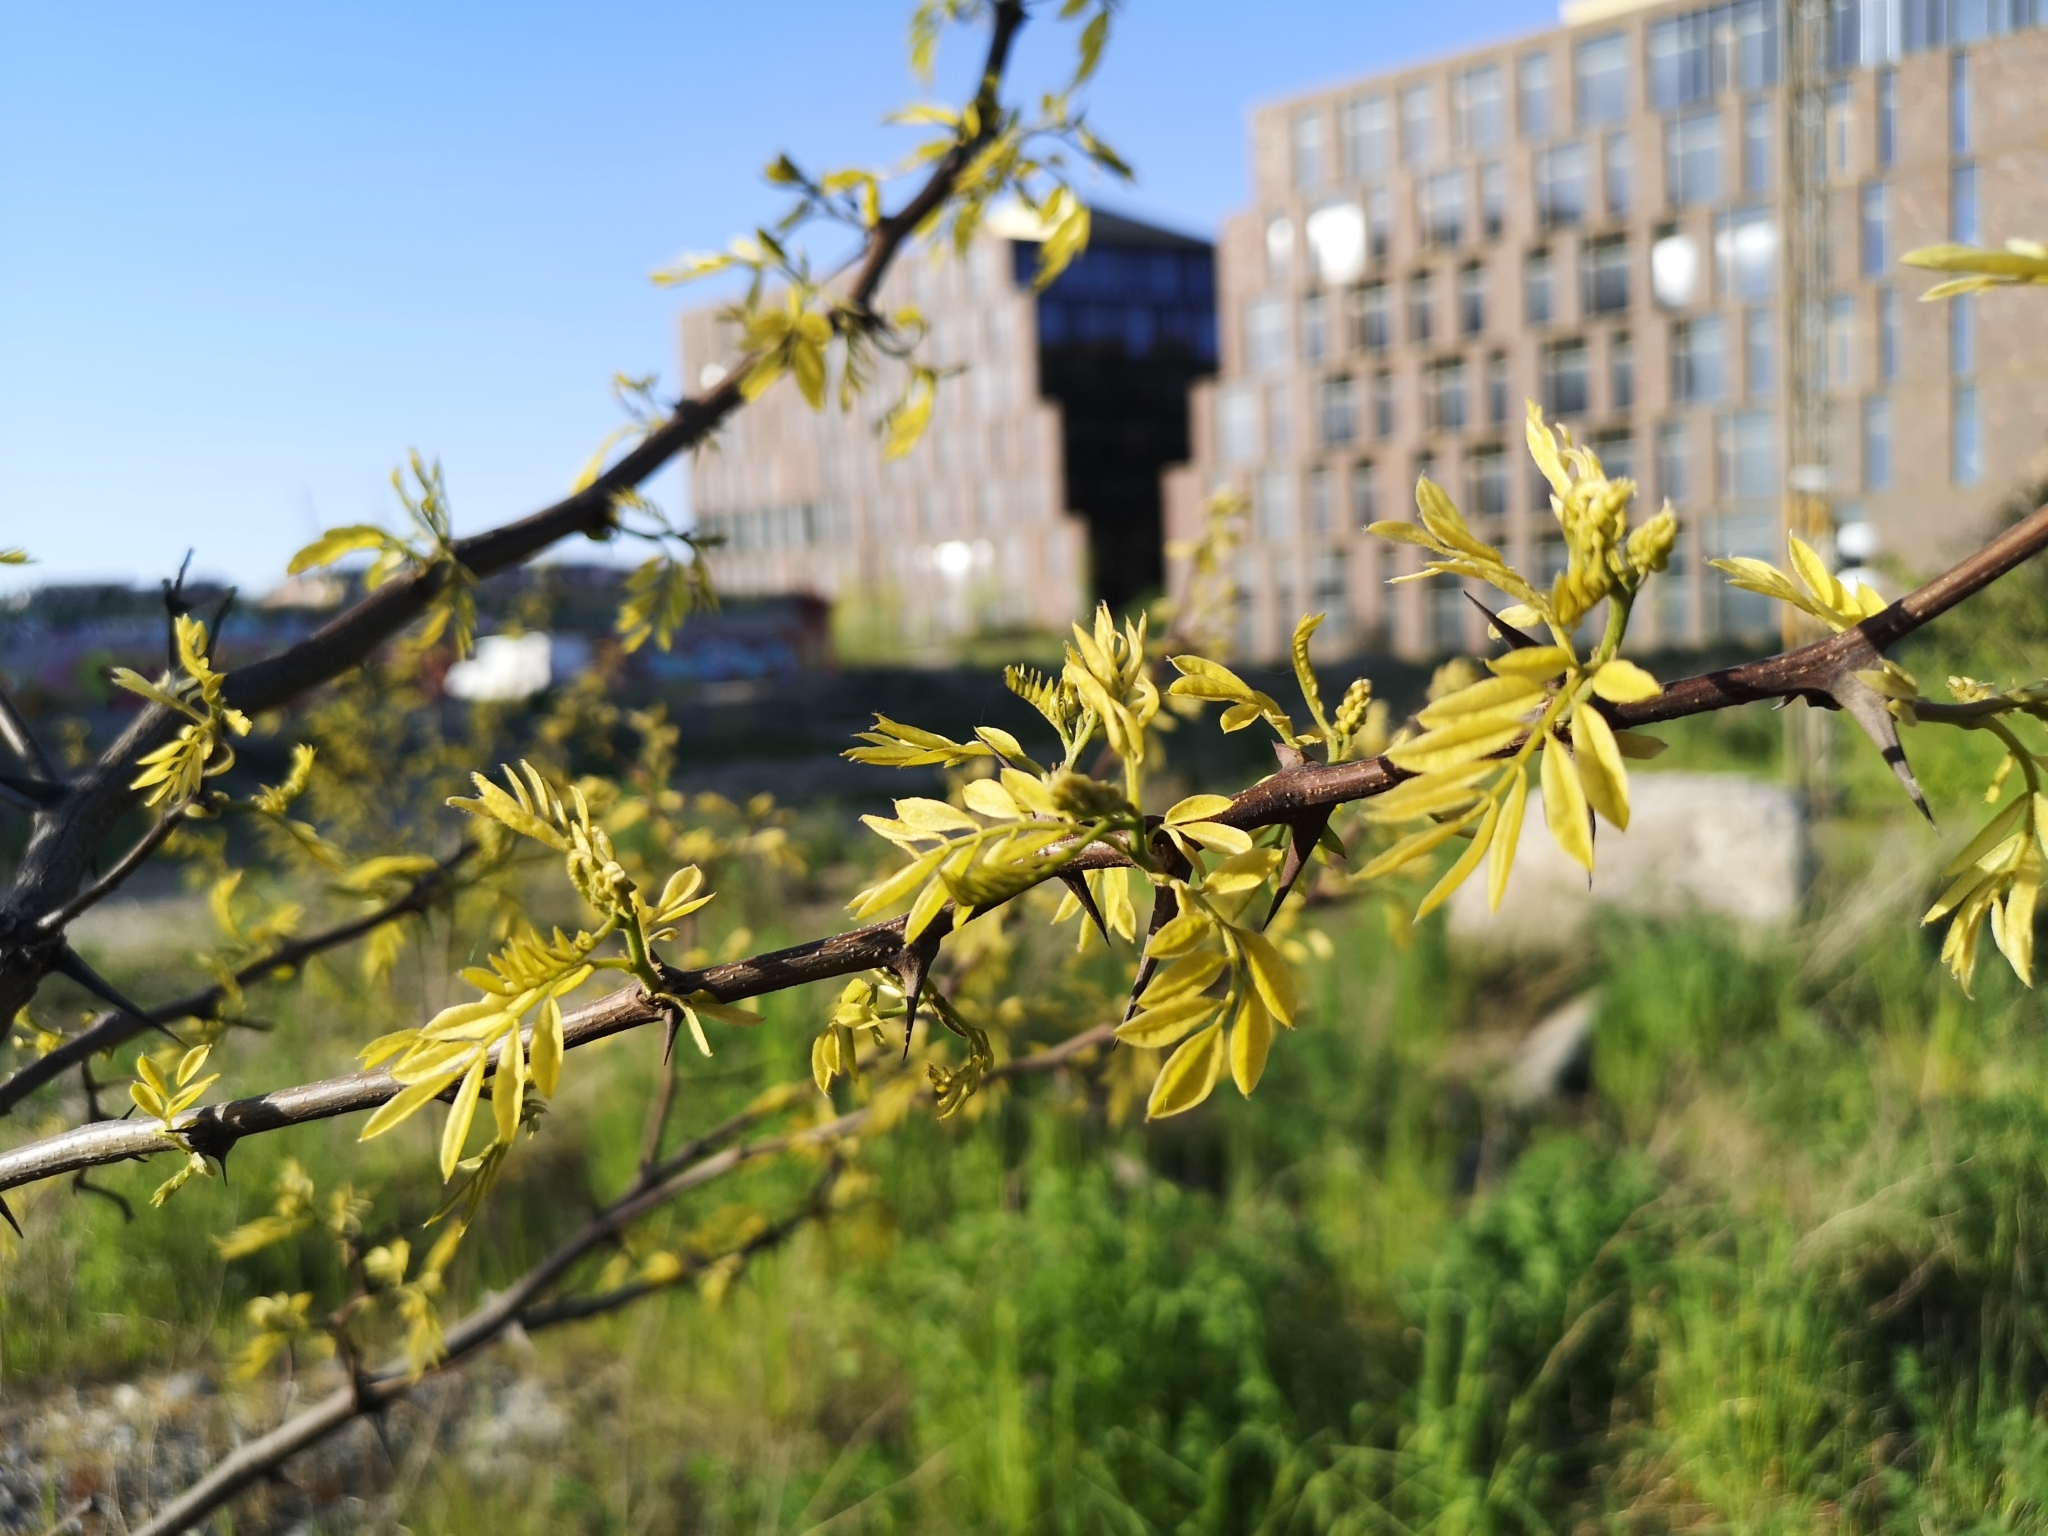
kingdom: Plantae
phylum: Tracheophyta
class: Magnoliopsida
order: Fabales
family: Fabaceae
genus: Robinia
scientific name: Robinia pseudoacacia
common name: Black locust
